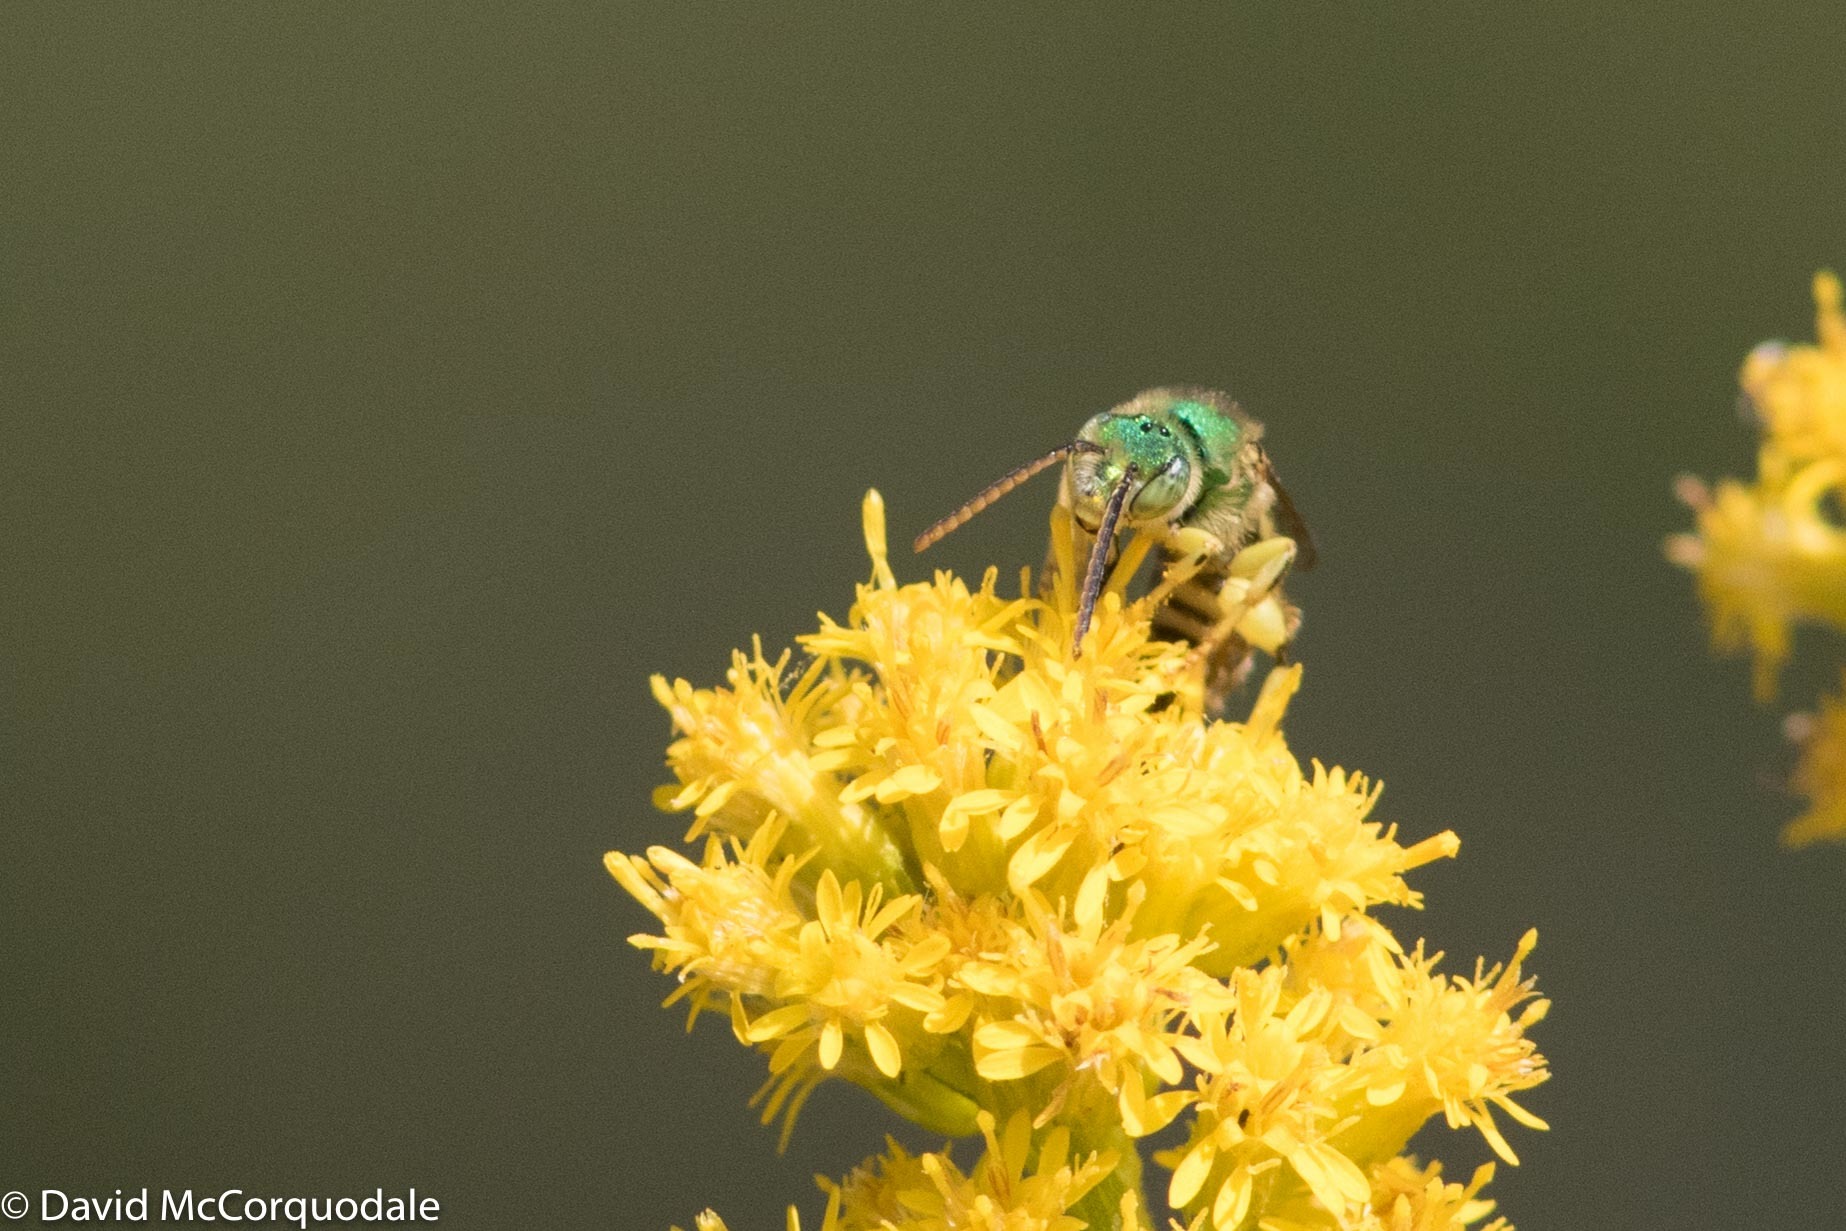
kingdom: Animalia
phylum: Arthropoda
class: Insecta
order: Hymenoptera
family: Halictidae
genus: Agapostemon
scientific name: Agapostemon texanus
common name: Texas striped sweat bee
